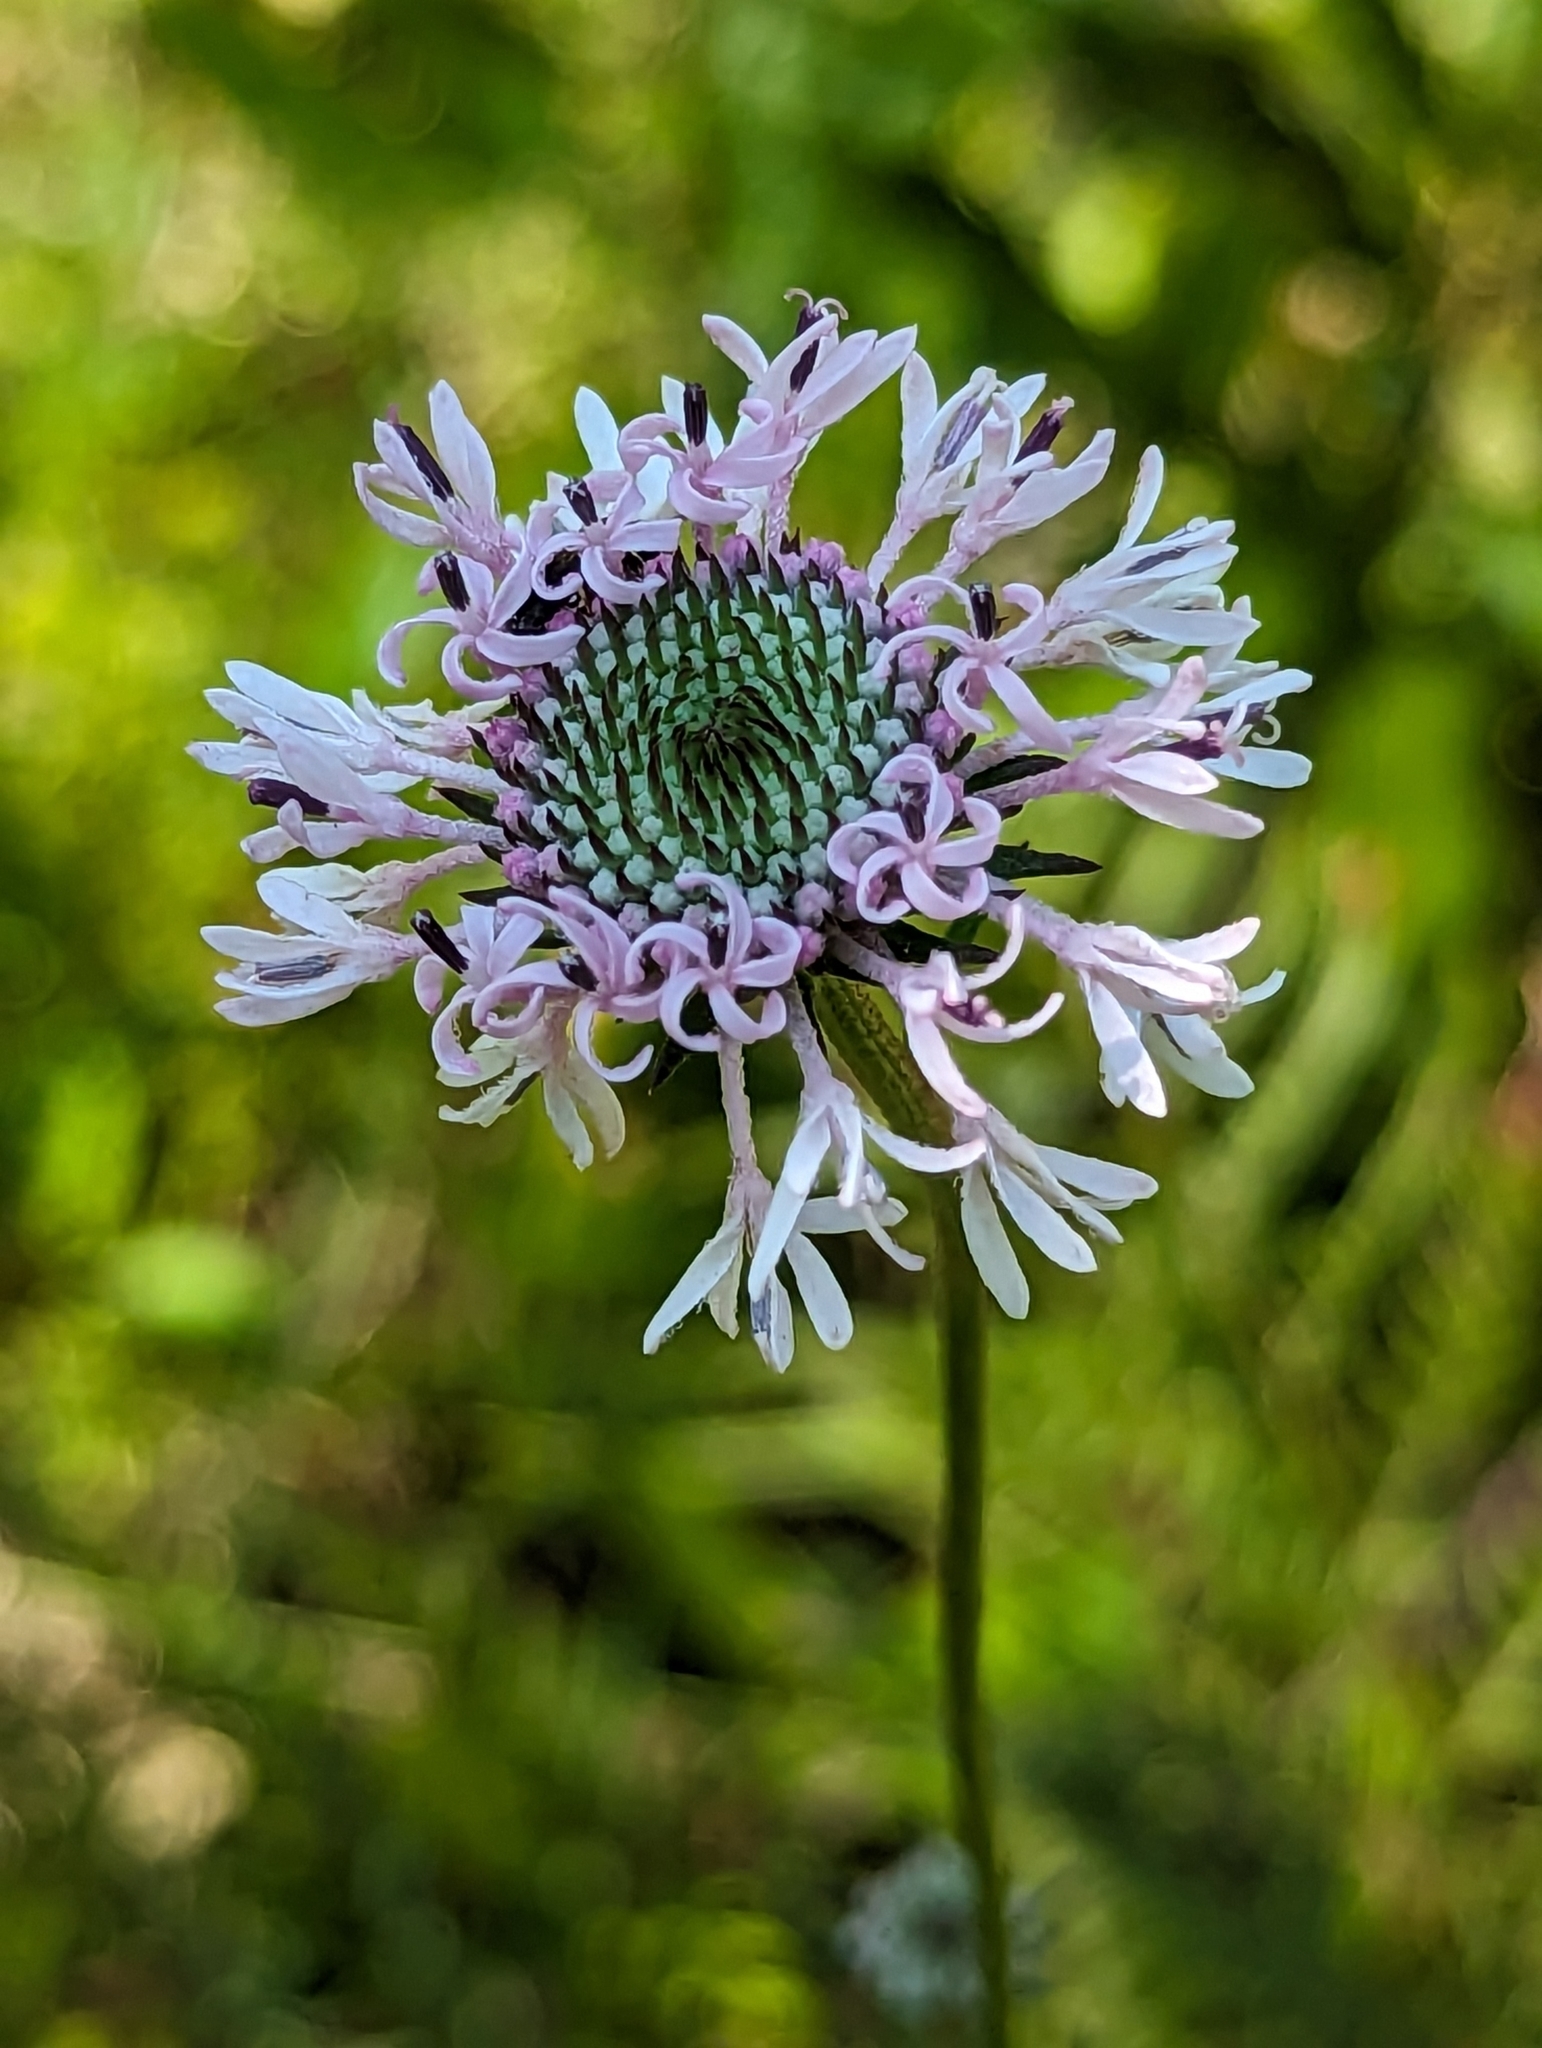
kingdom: Plantae
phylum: Tracheophyta
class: Magnoliopsida
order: Asterales
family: Asteraceae
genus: Marshallia
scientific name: Marshallia graminifolia
